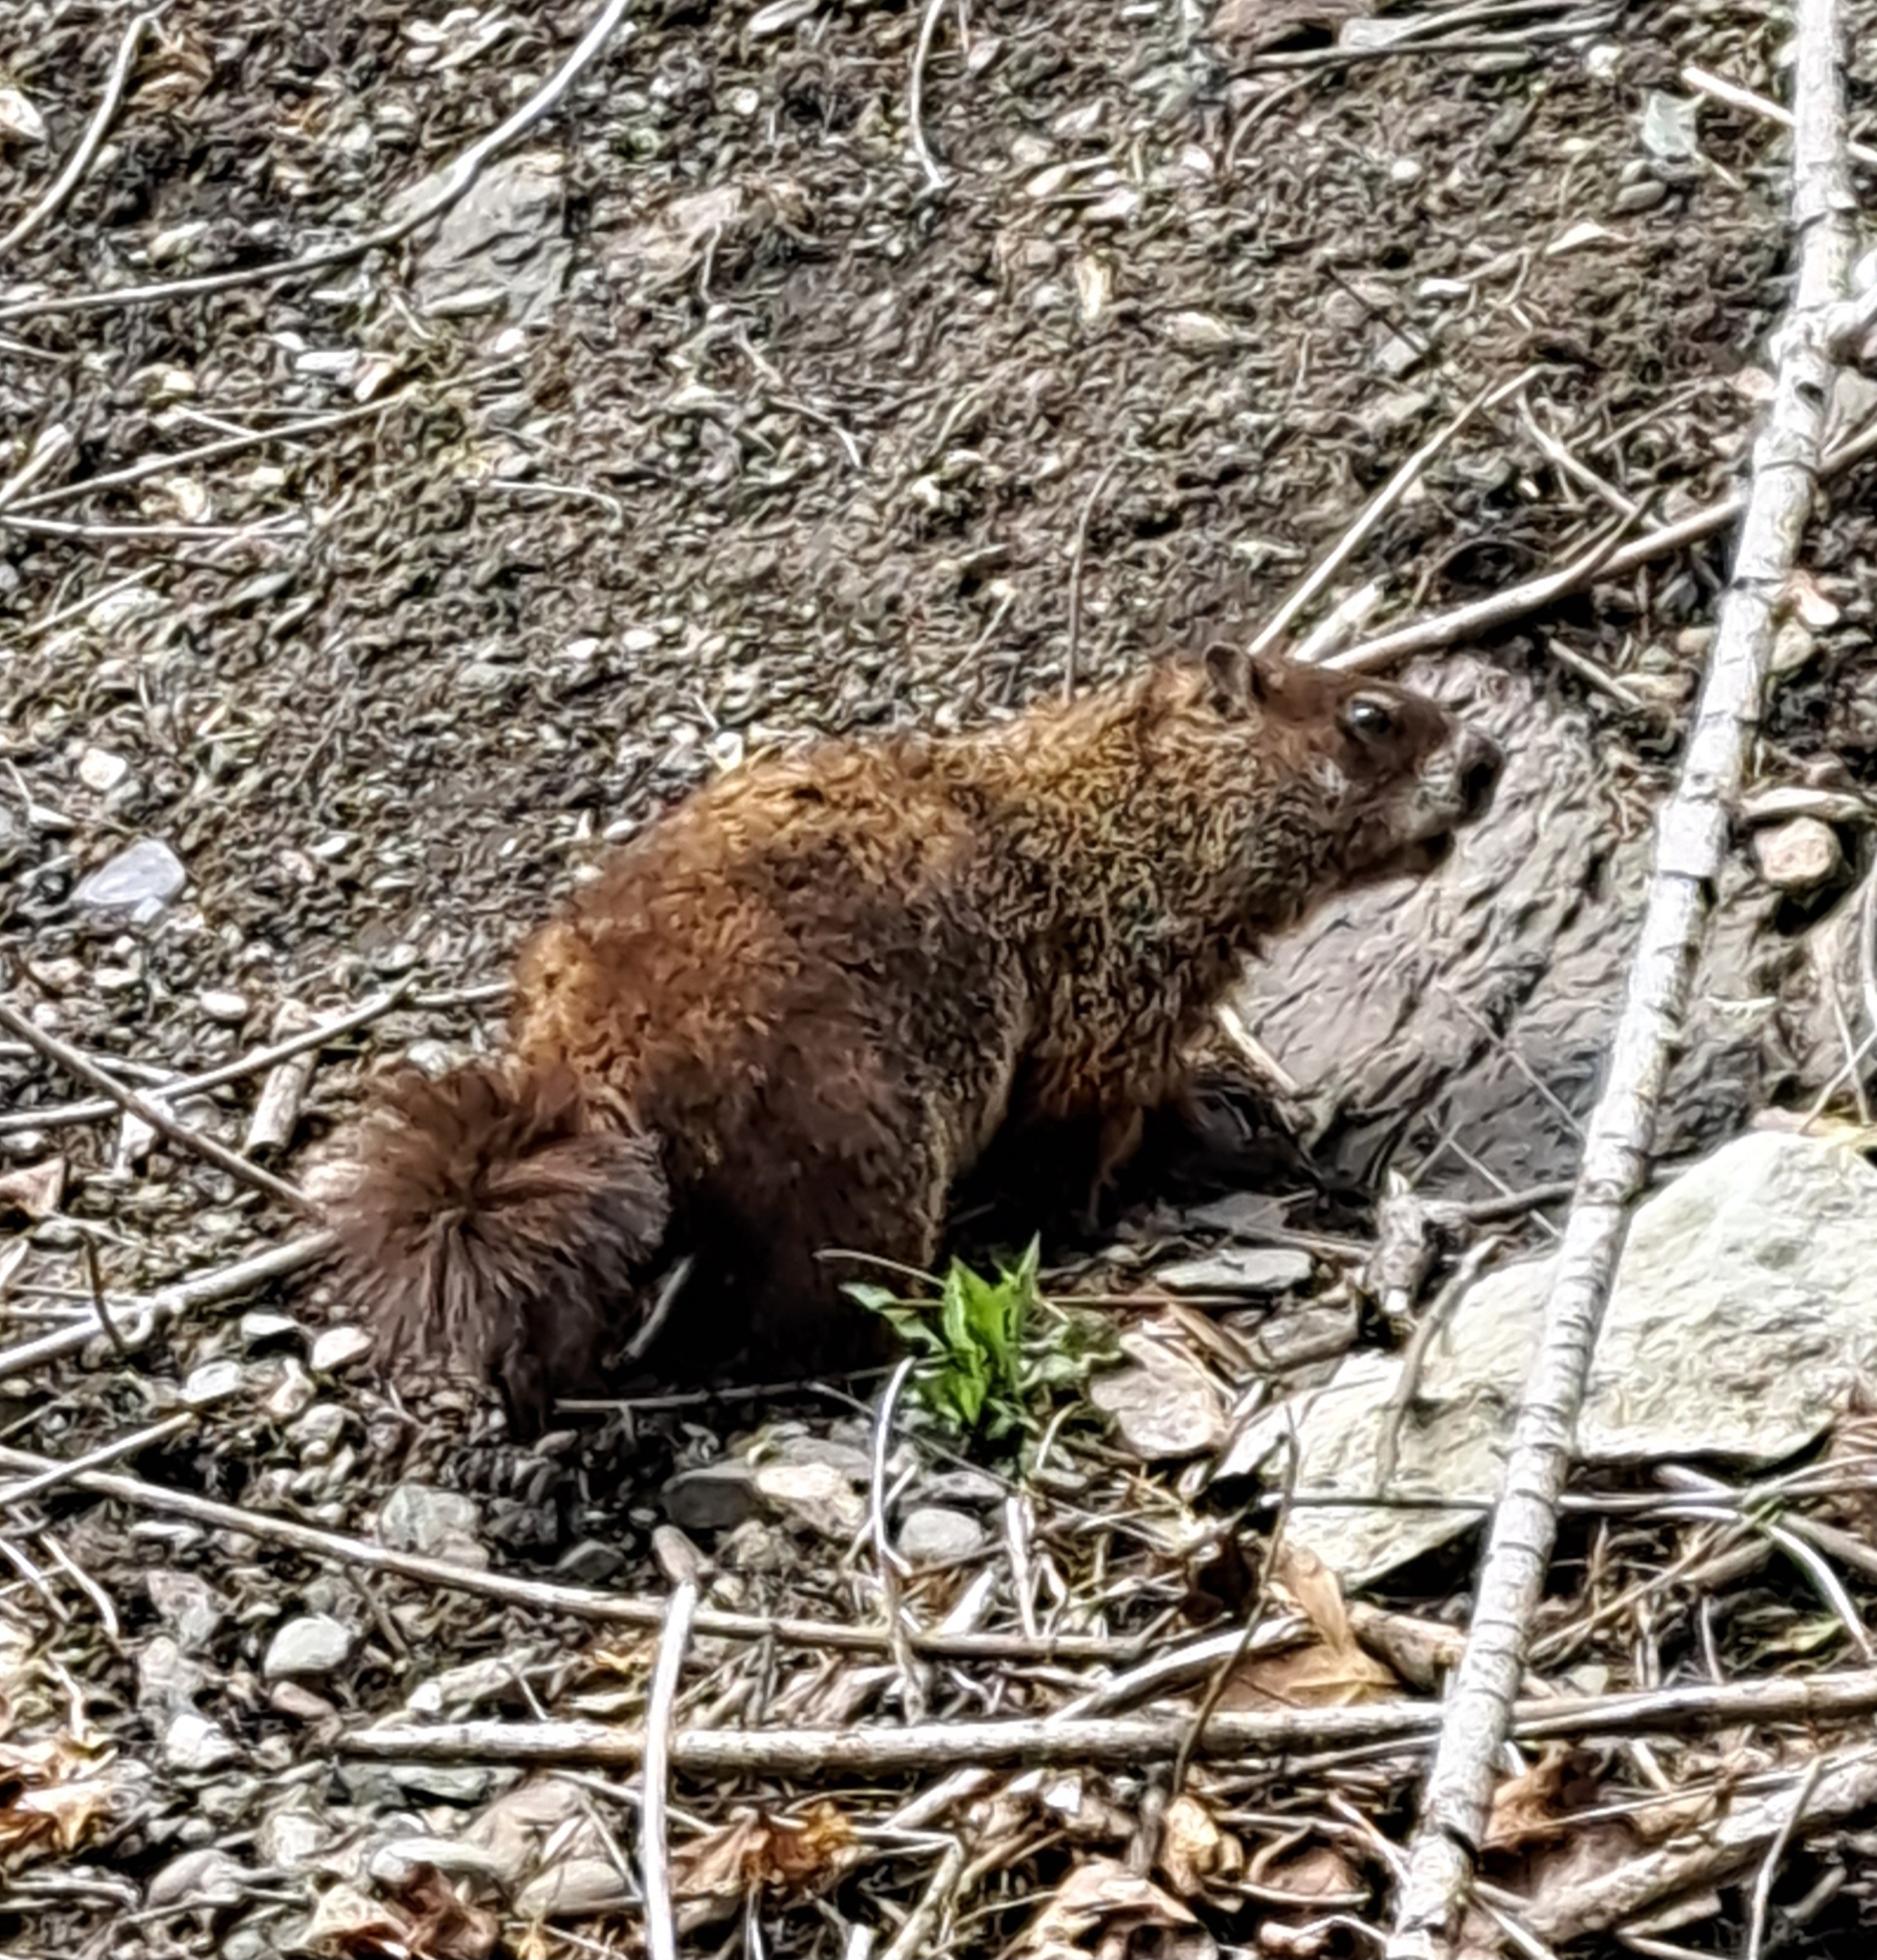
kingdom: Animalia
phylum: Chordata
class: Mammalia
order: Rodentia
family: Sciuridae
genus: Marmota
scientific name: Marmota monax
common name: Groundhog
